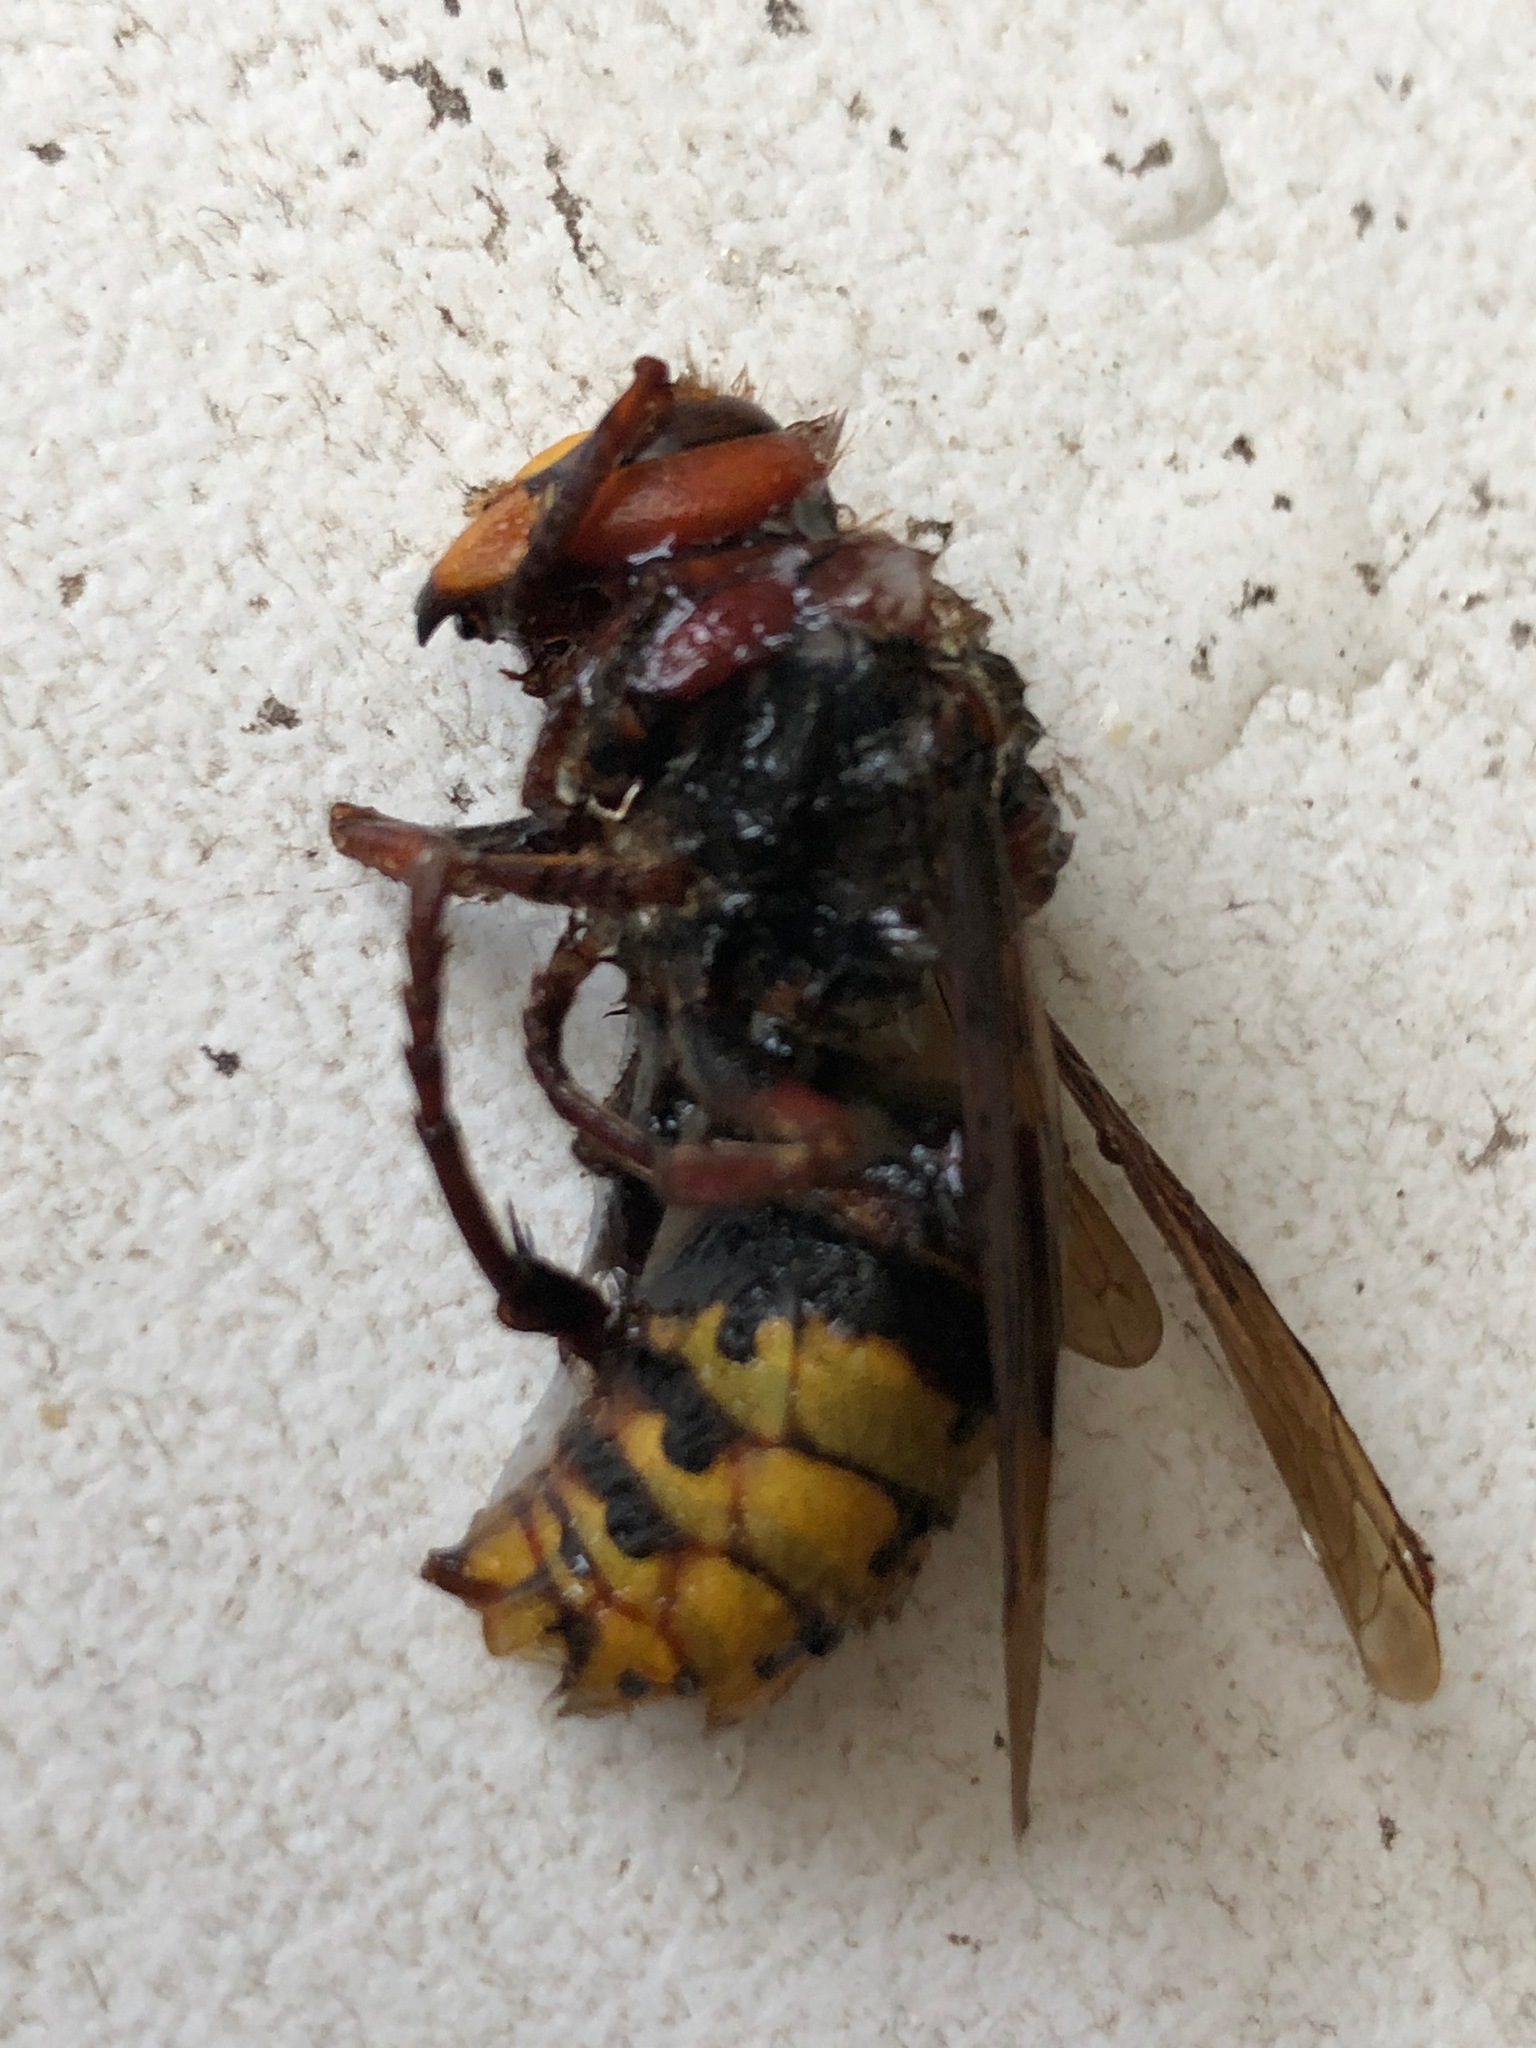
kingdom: Animalia
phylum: Arthropoda
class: Insecta
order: Hymenoptera
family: Vespidae
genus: Vespa
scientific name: Vespa crabro
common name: Hornet
